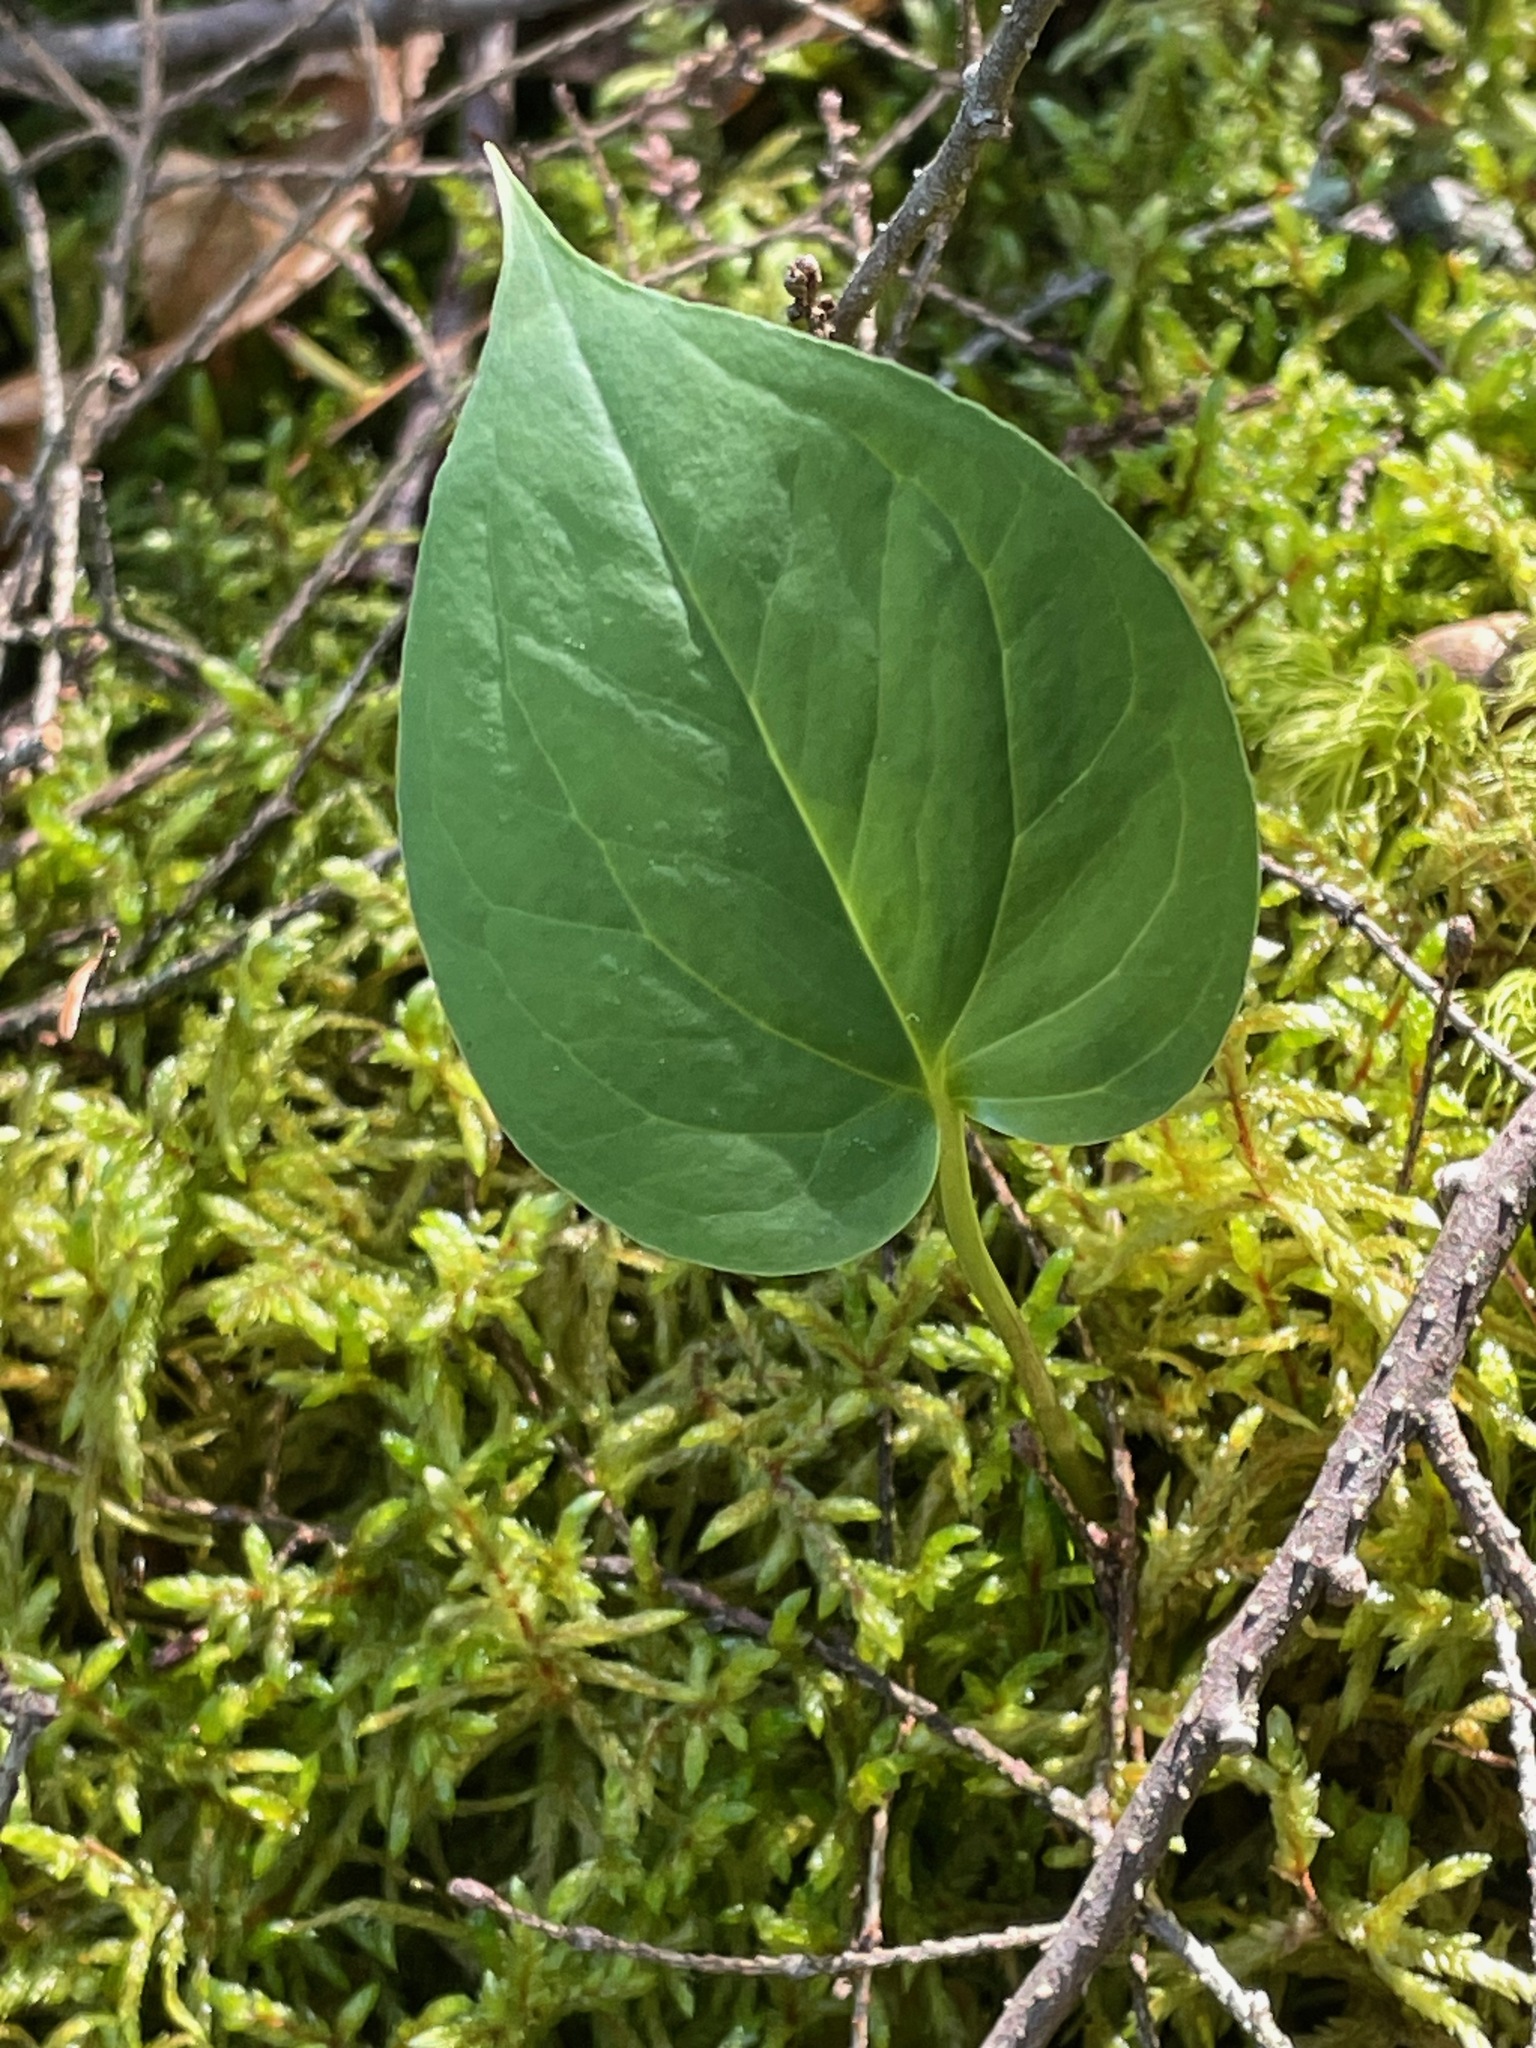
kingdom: Plantae
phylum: Tracheophyta
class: Liliopsida
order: Liliales
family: Melanthiaceae
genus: Trillium
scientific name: Trillium undulatum
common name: Paint trillium
